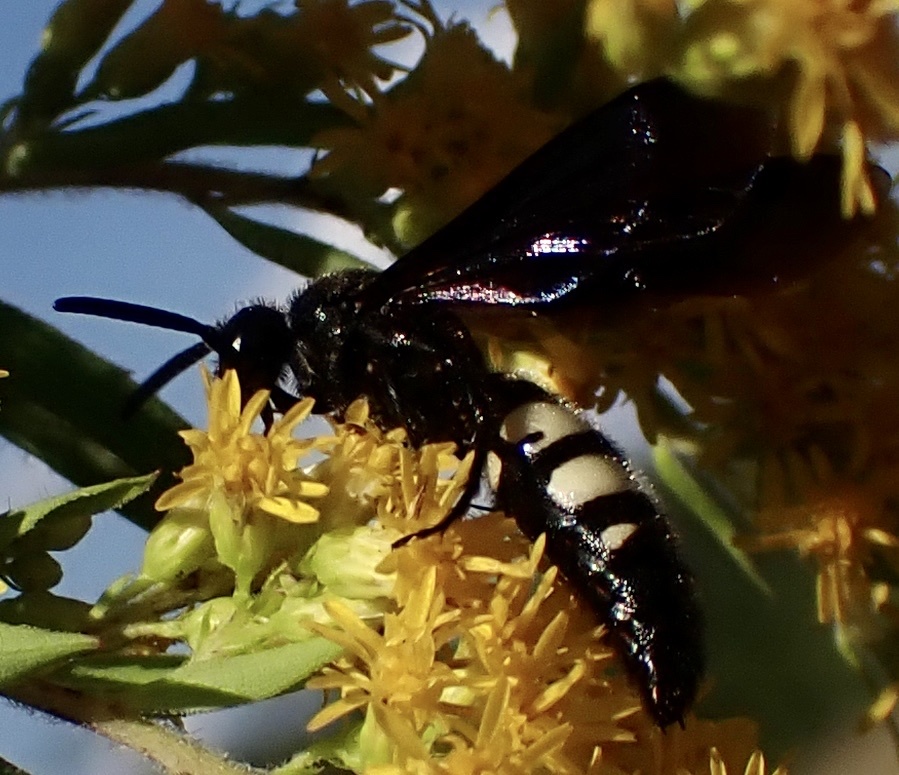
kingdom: Animalia
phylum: Arthropoda
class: Insecta
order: Hymenoptera
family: Scoliidae
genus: Scolia
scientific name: Scolia bicincta
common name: Double-banded scoliid wasp
